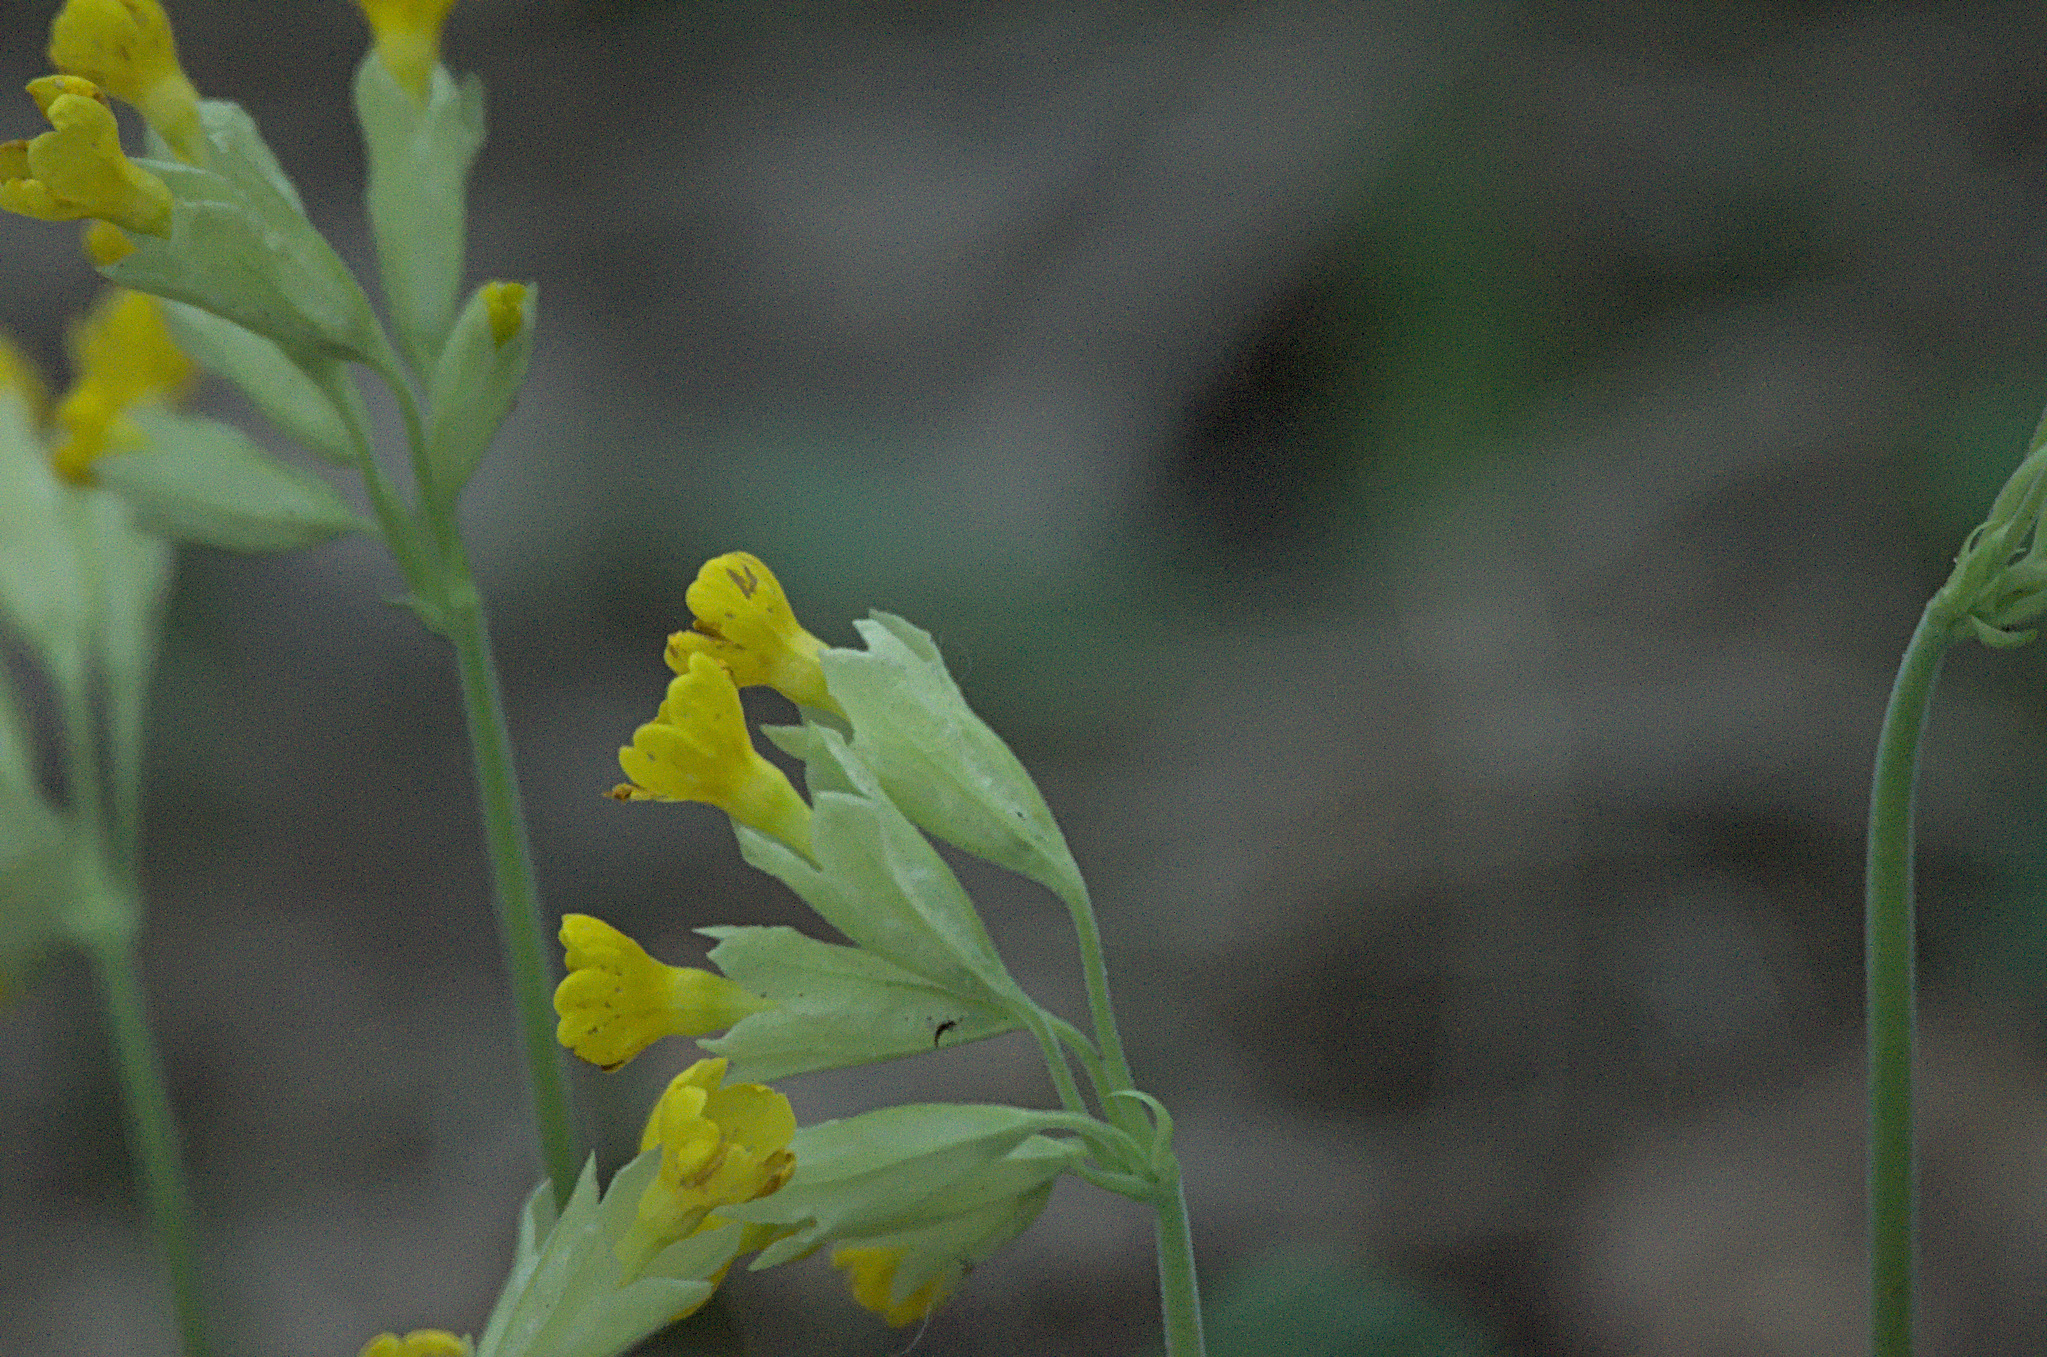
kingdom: Plantae
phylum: Tracheophyta
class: Magnoliopsida
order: Ericales
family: Primulaceae
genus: Primula
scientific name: Primula veris
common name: Cowslip
